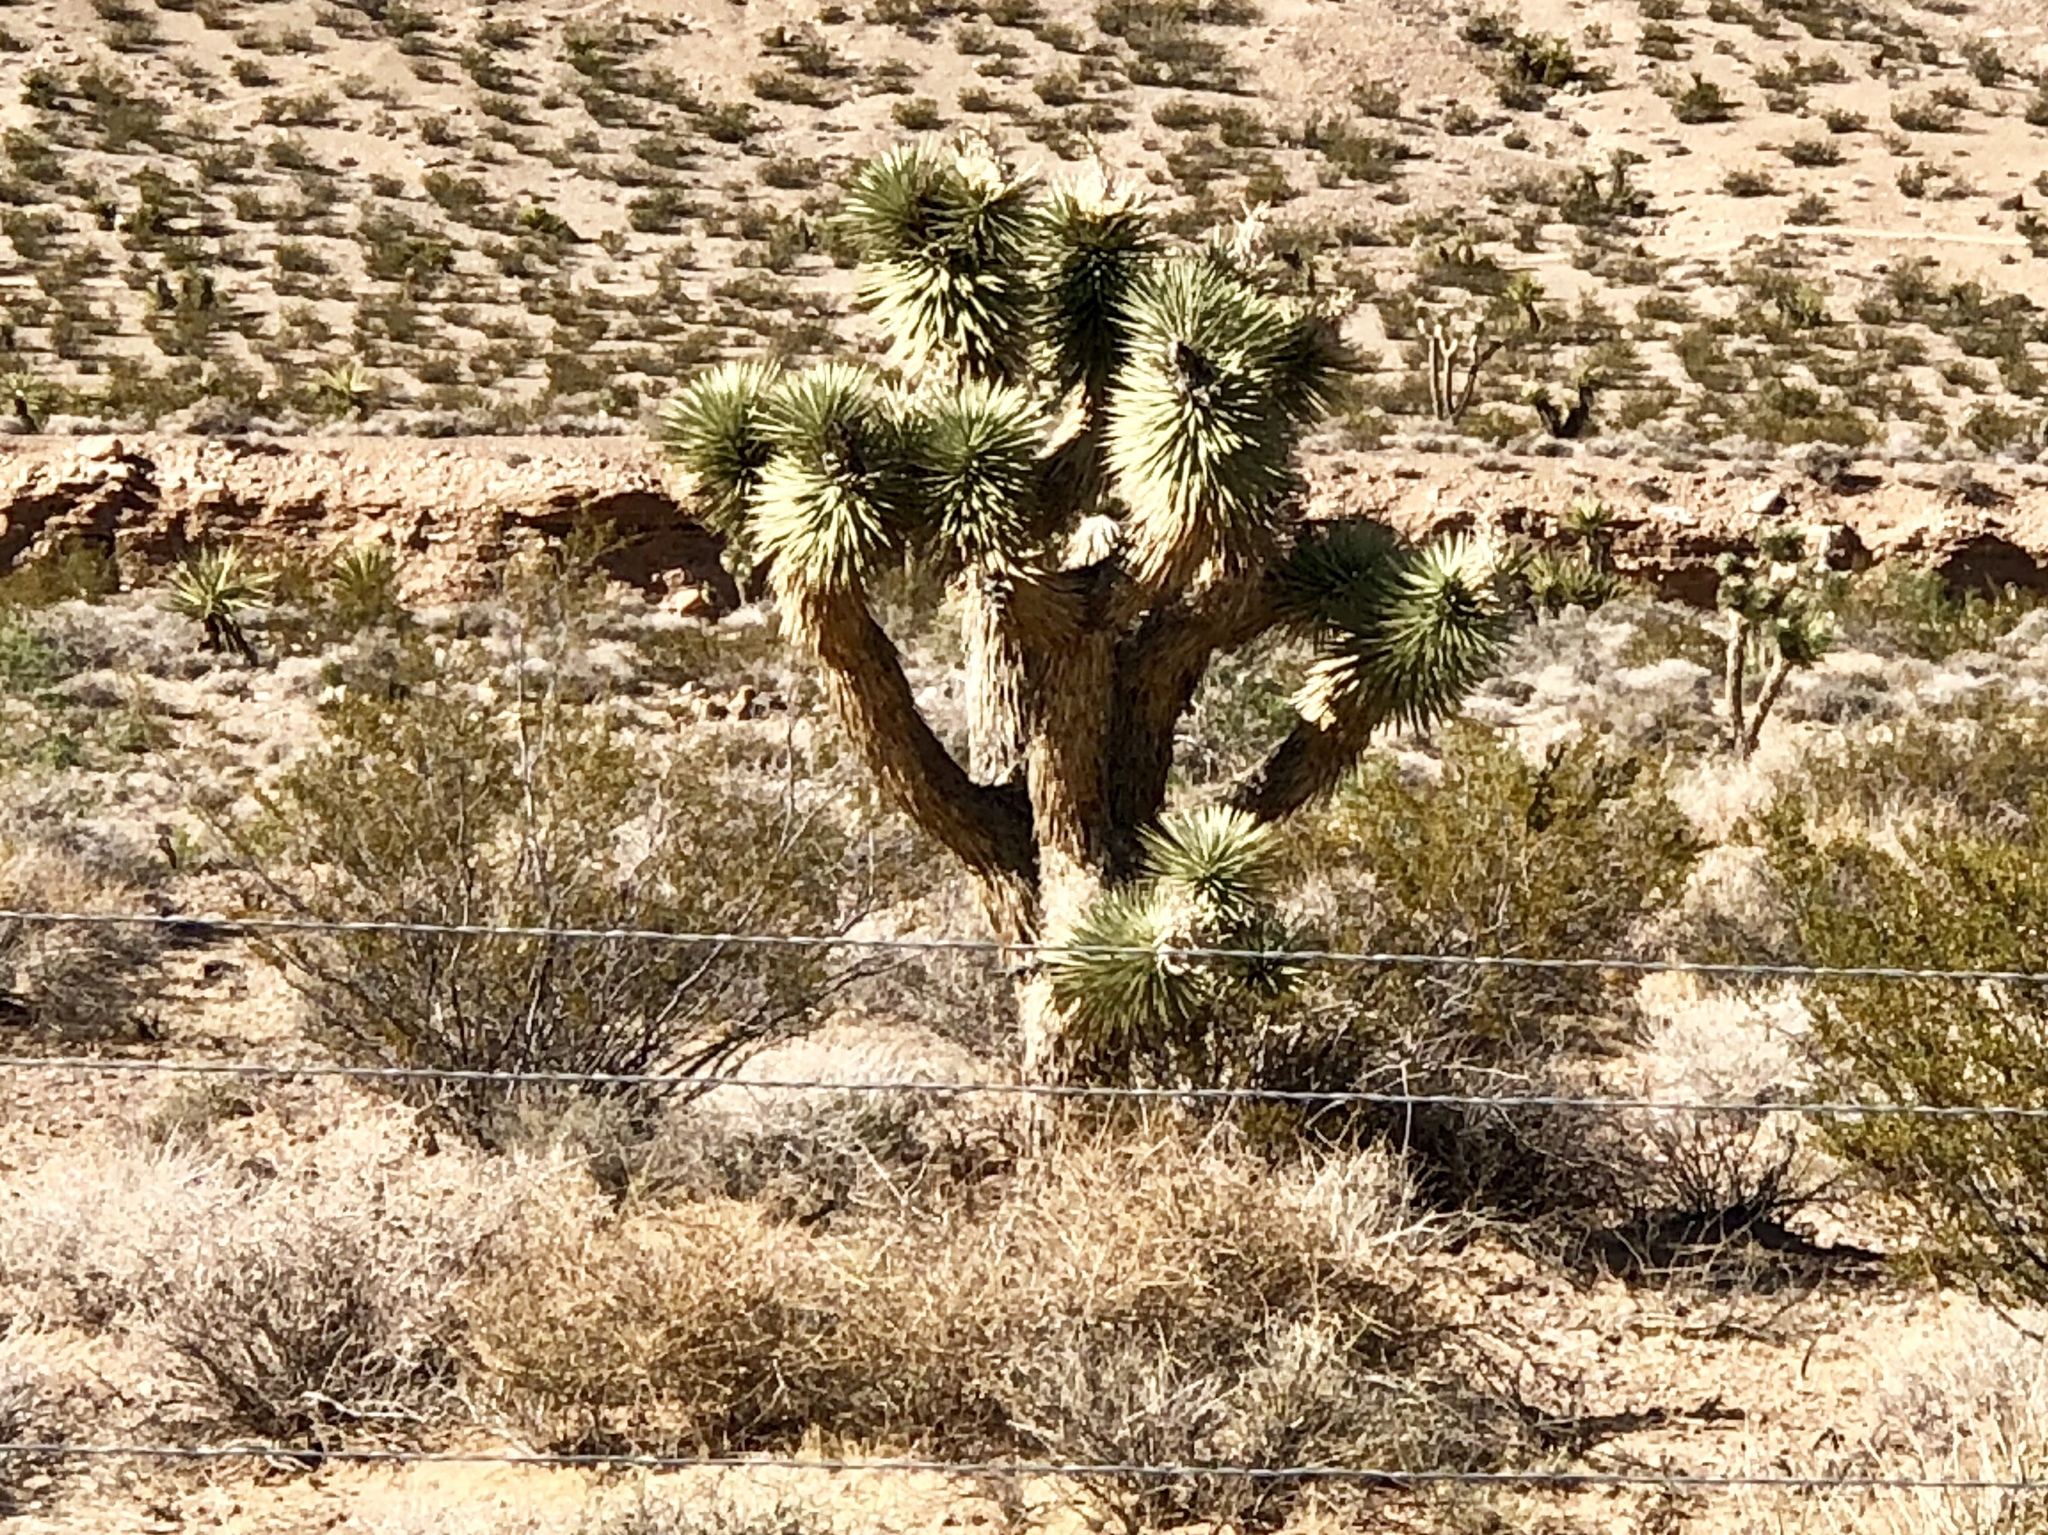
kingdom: Plantae
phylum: Tracheophyta
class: Liliopsida
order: Asparagales
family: Asparagaceae
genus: Yucca
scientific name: Yucca brevifolia
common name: Joshua tree
